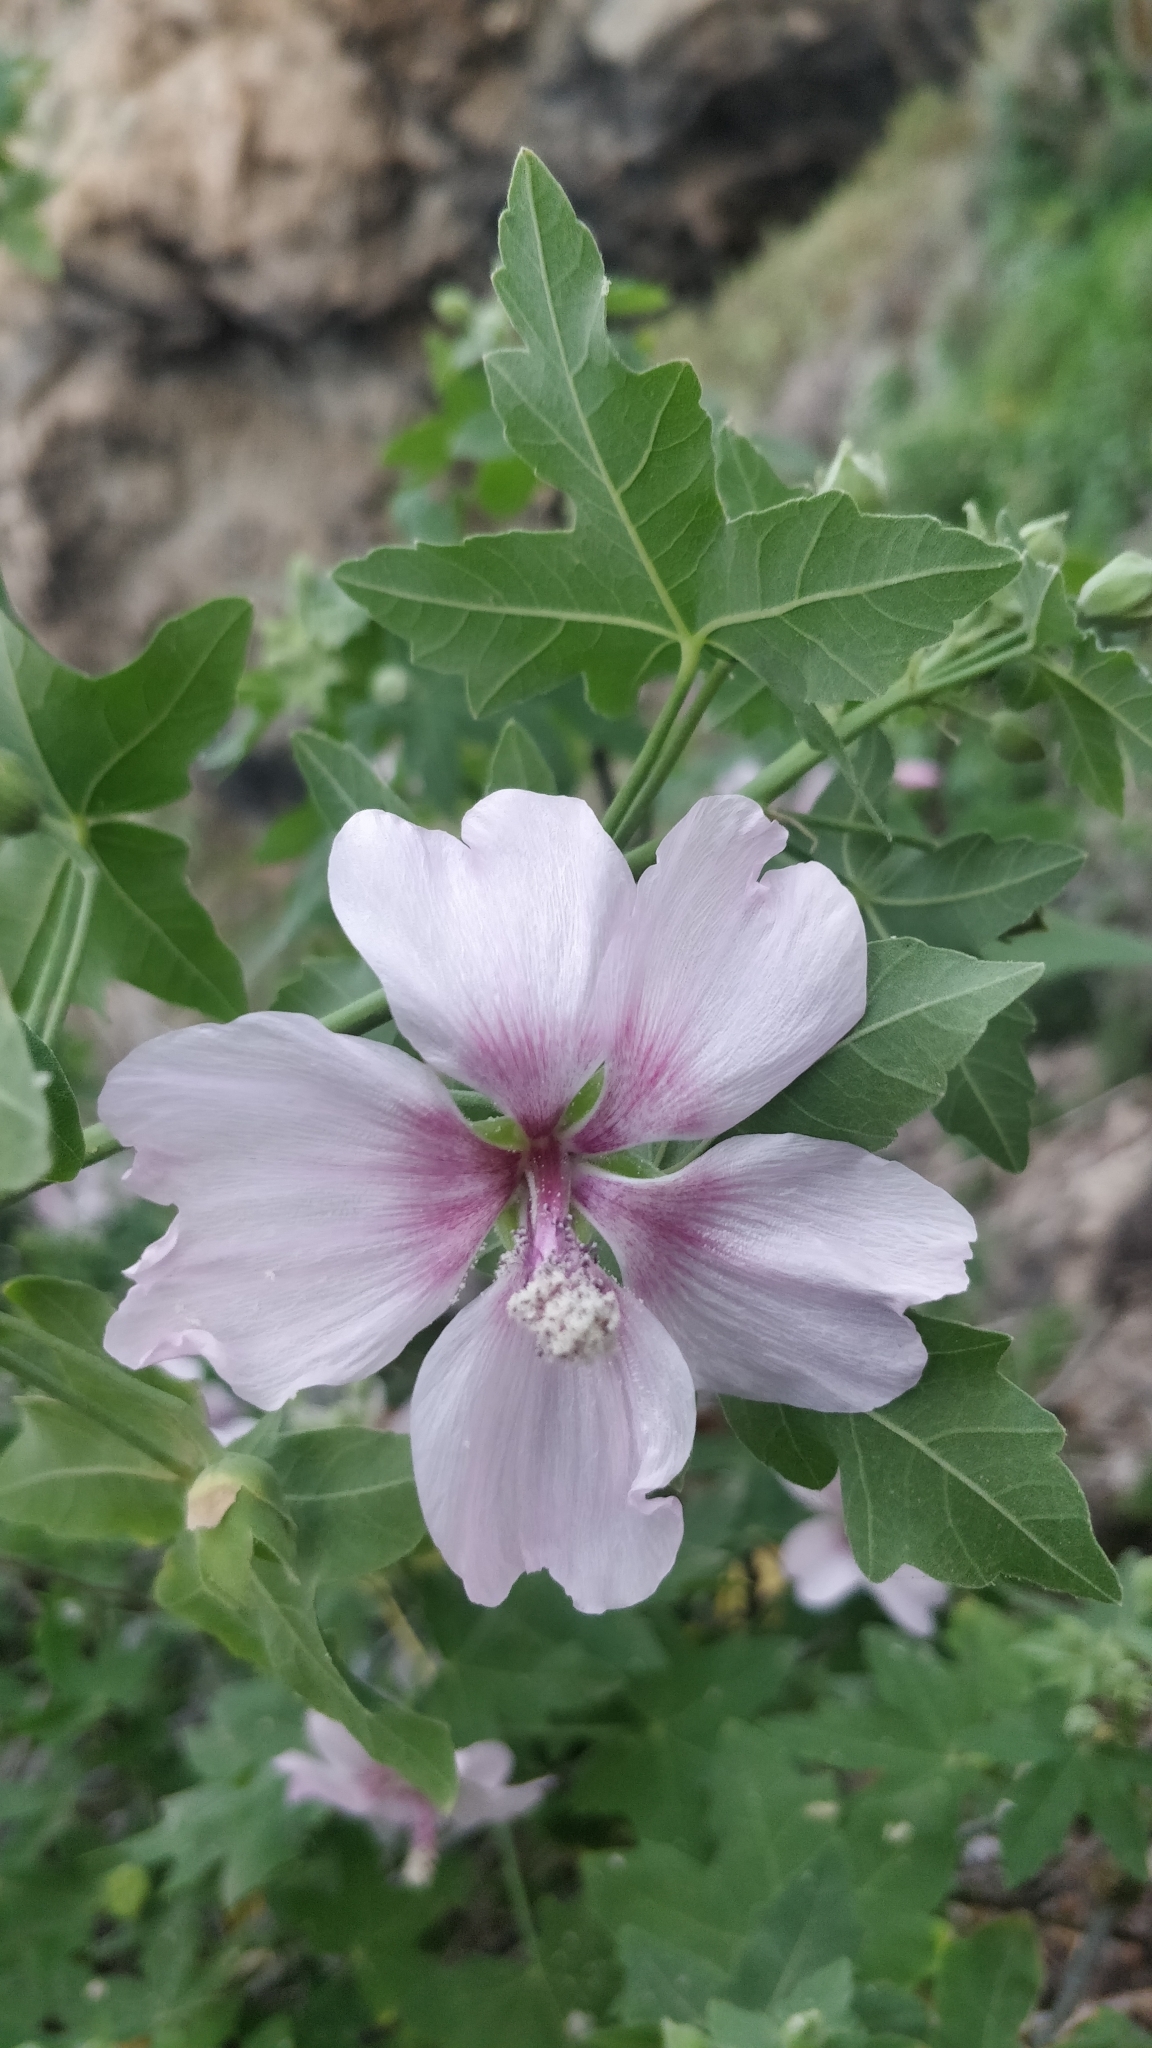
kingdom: Plantae
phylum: Tracheophyta
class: Magnoliopsida
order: Malvales
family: Malvaceae
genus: Malva
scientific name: Malva acerifolia
